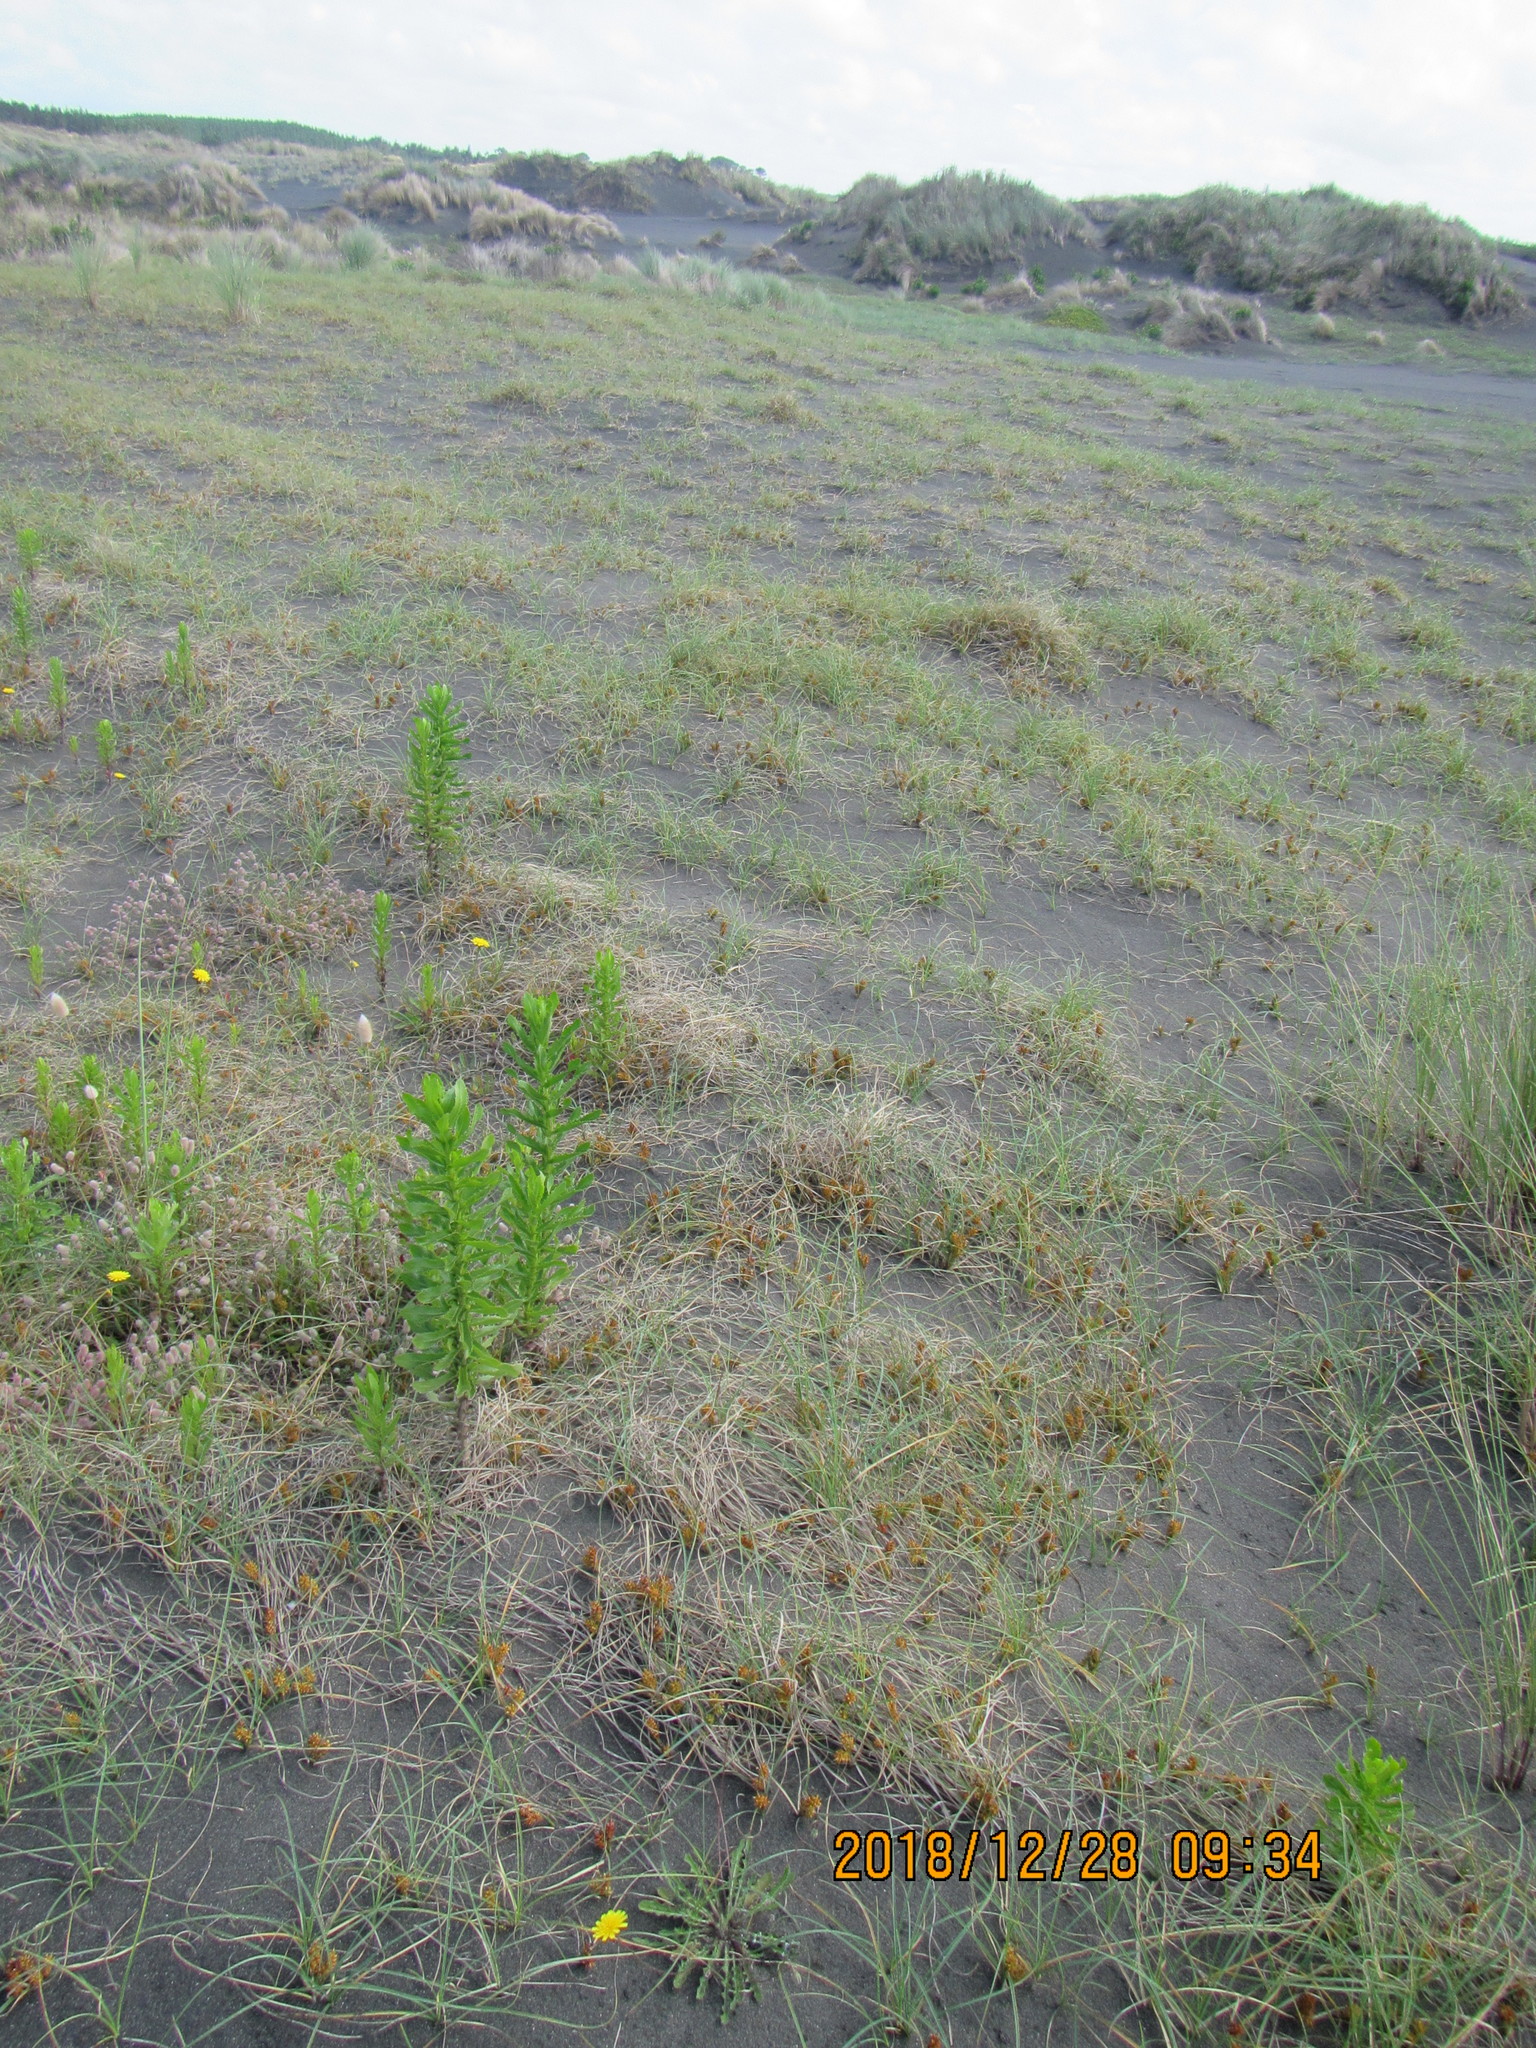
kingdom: Plantae
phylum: Tracheophyta
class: Liliopsida
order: Poales
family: Cyperaceae
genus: Carex
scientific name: Carex pumila
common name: Dwarf sedge
